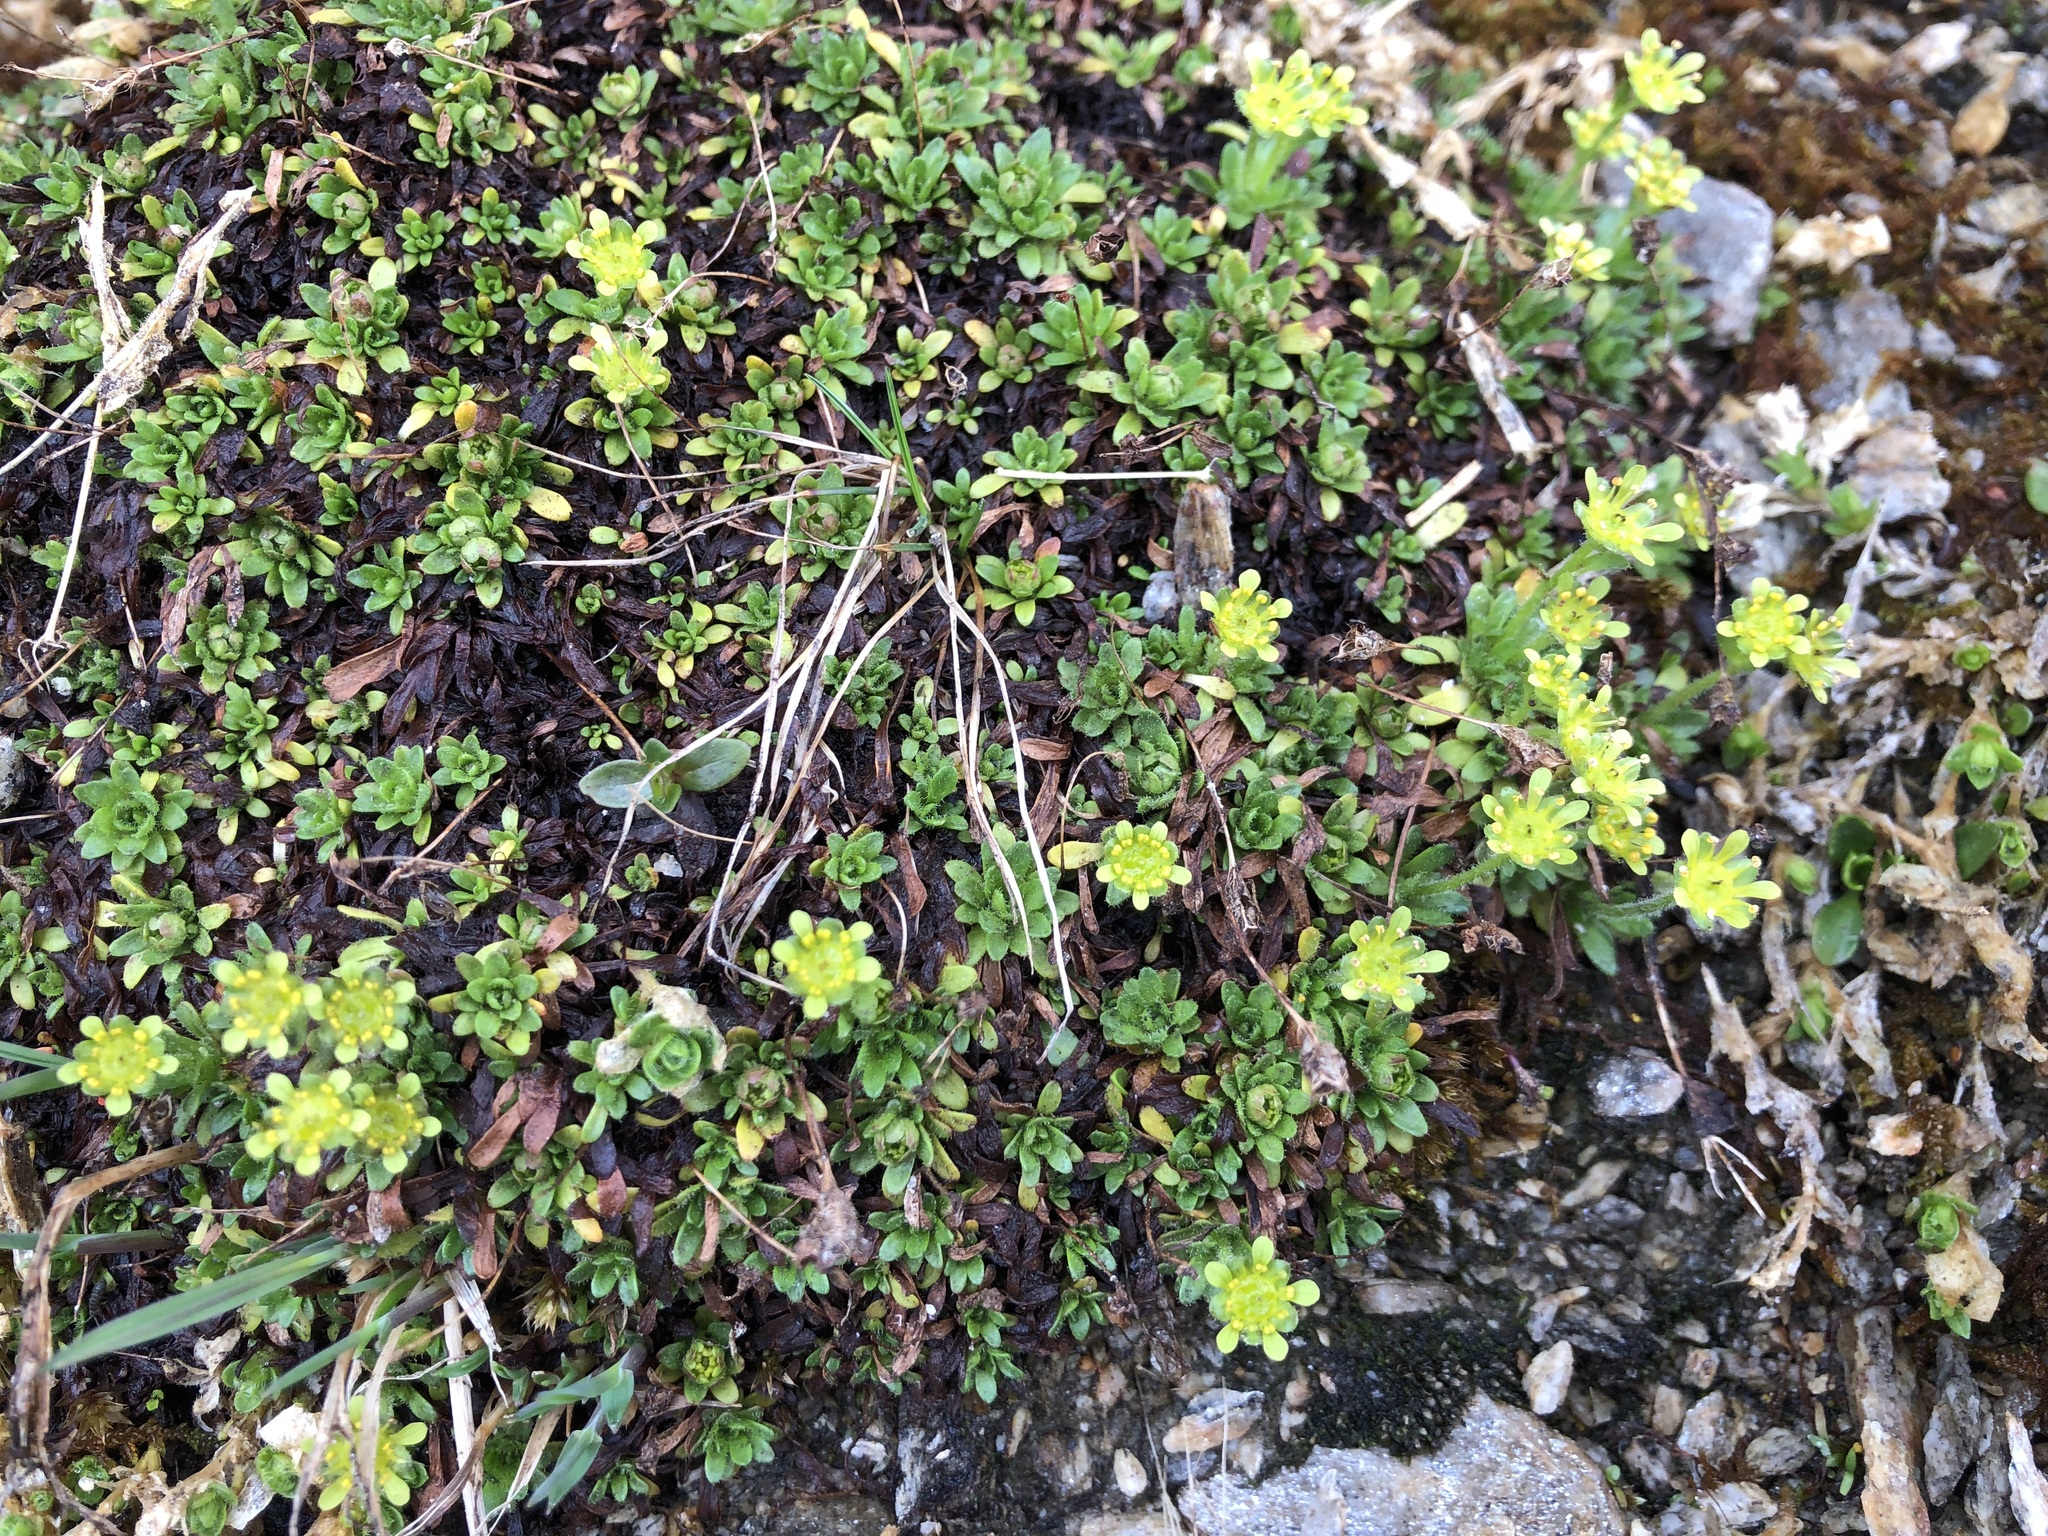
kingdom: Plantae
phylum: Tracheophyta
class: Magnoliopsida
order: Saxifragales
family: Saxifragaceae
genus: Saxifraga
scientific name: Saxifraga seguieri
